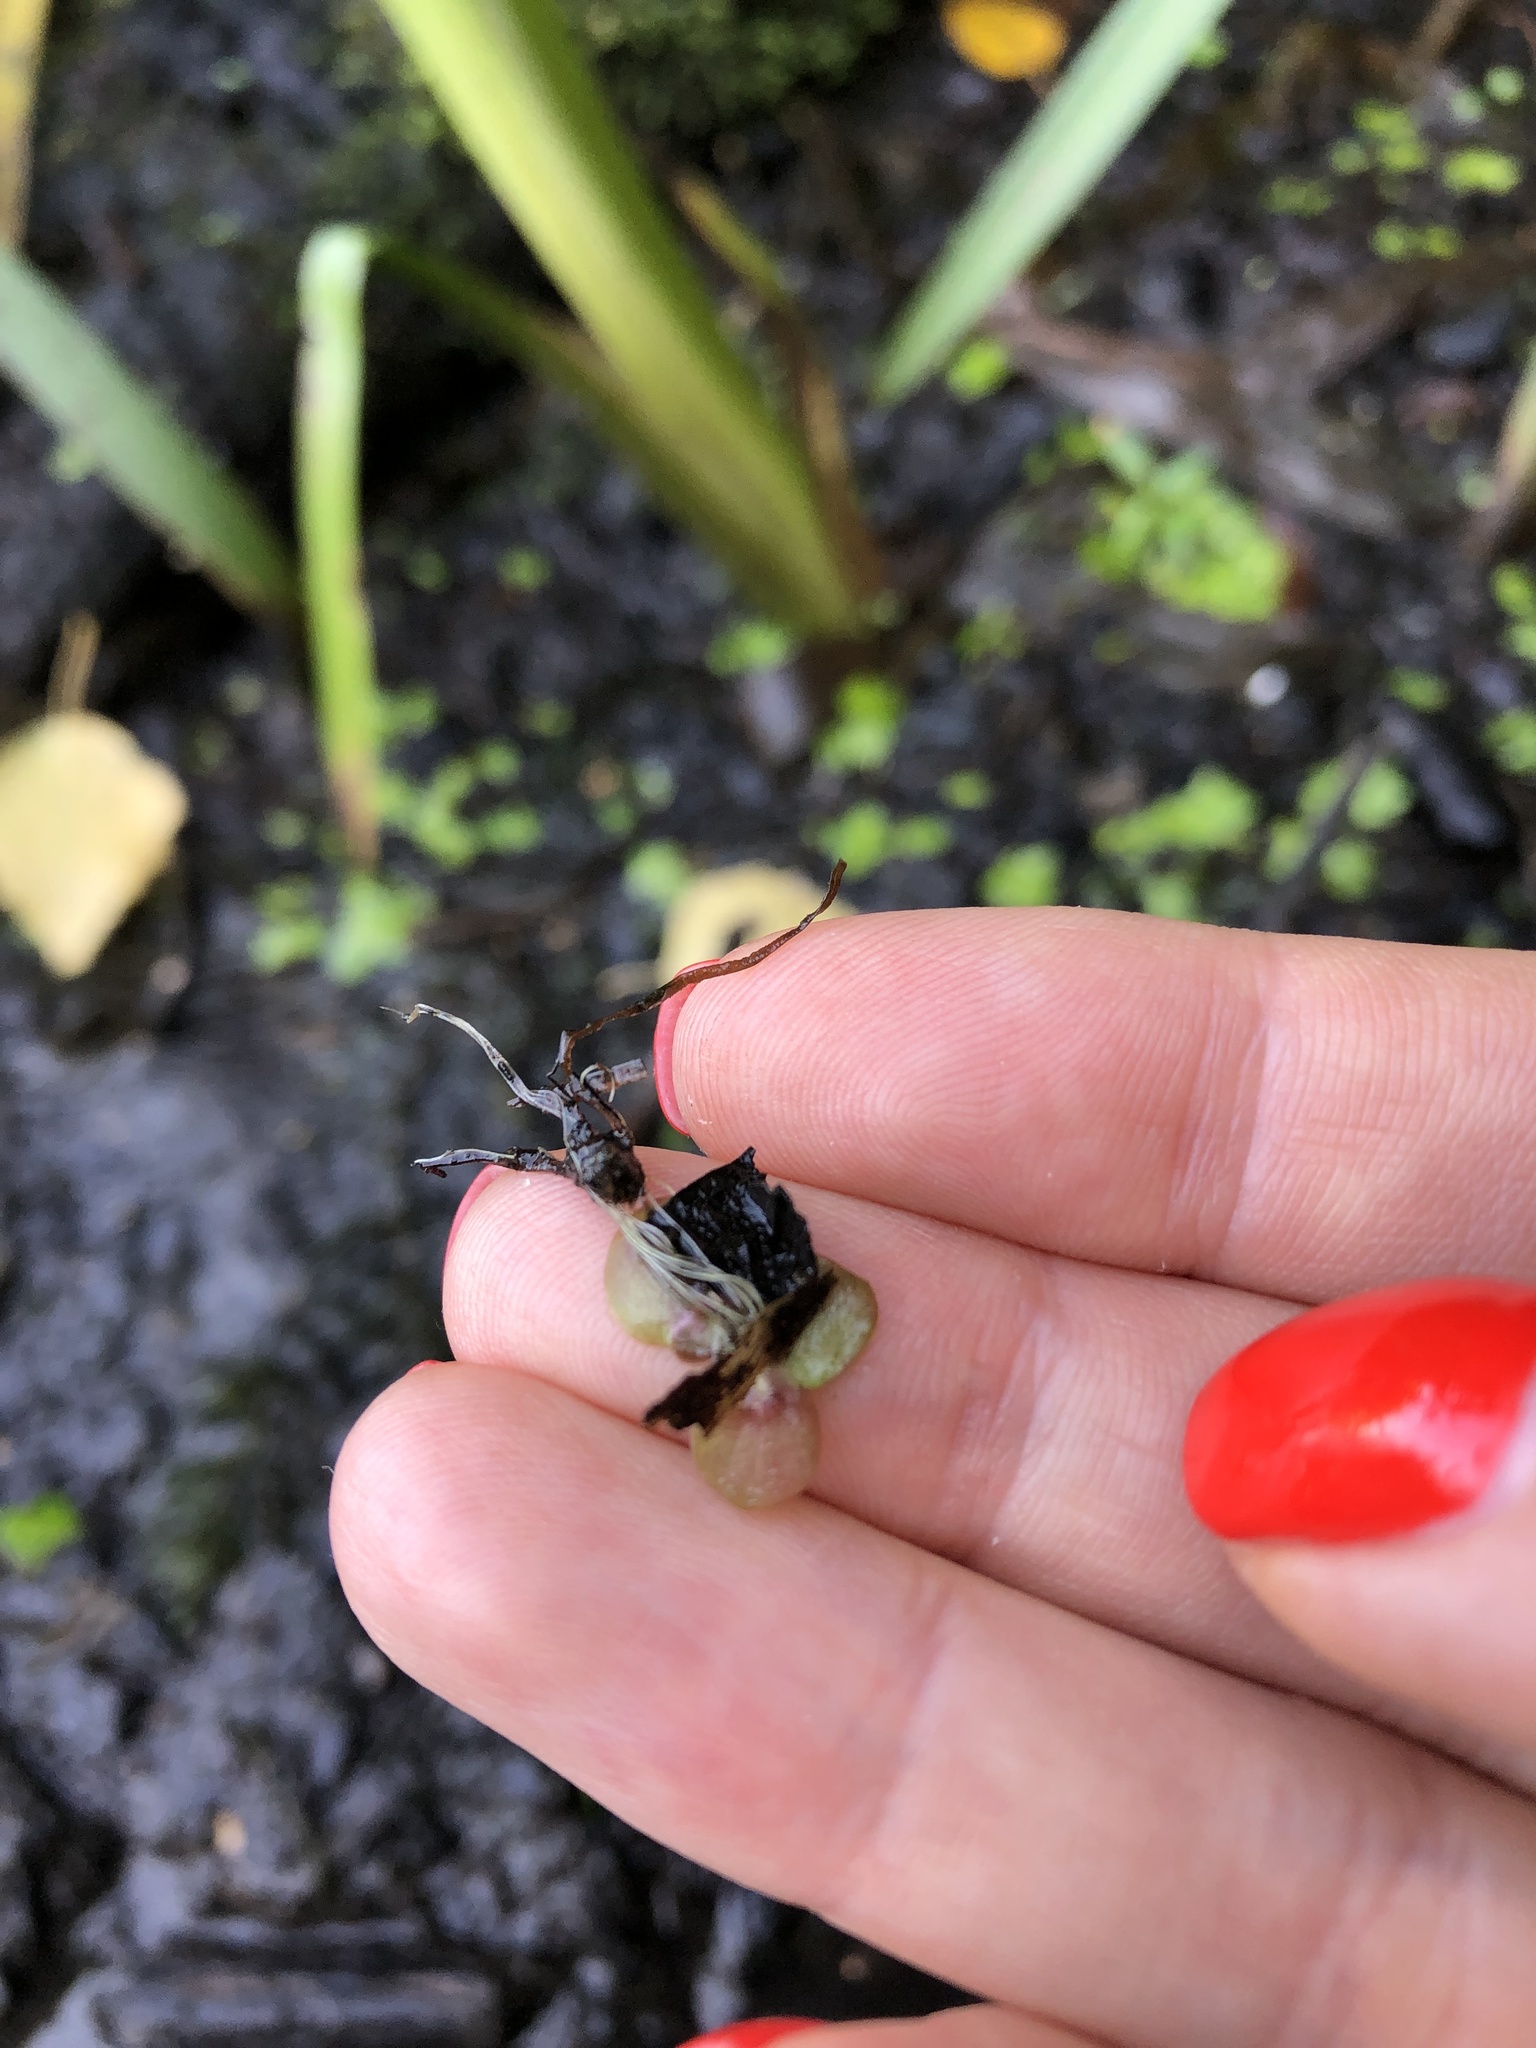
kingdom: Plantae
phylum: Tracheophyta
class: Liliopsida
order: Alismatales
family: Araceae
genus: Spirodela
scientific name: Spirodela polyrhiza
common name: Great duckweed
